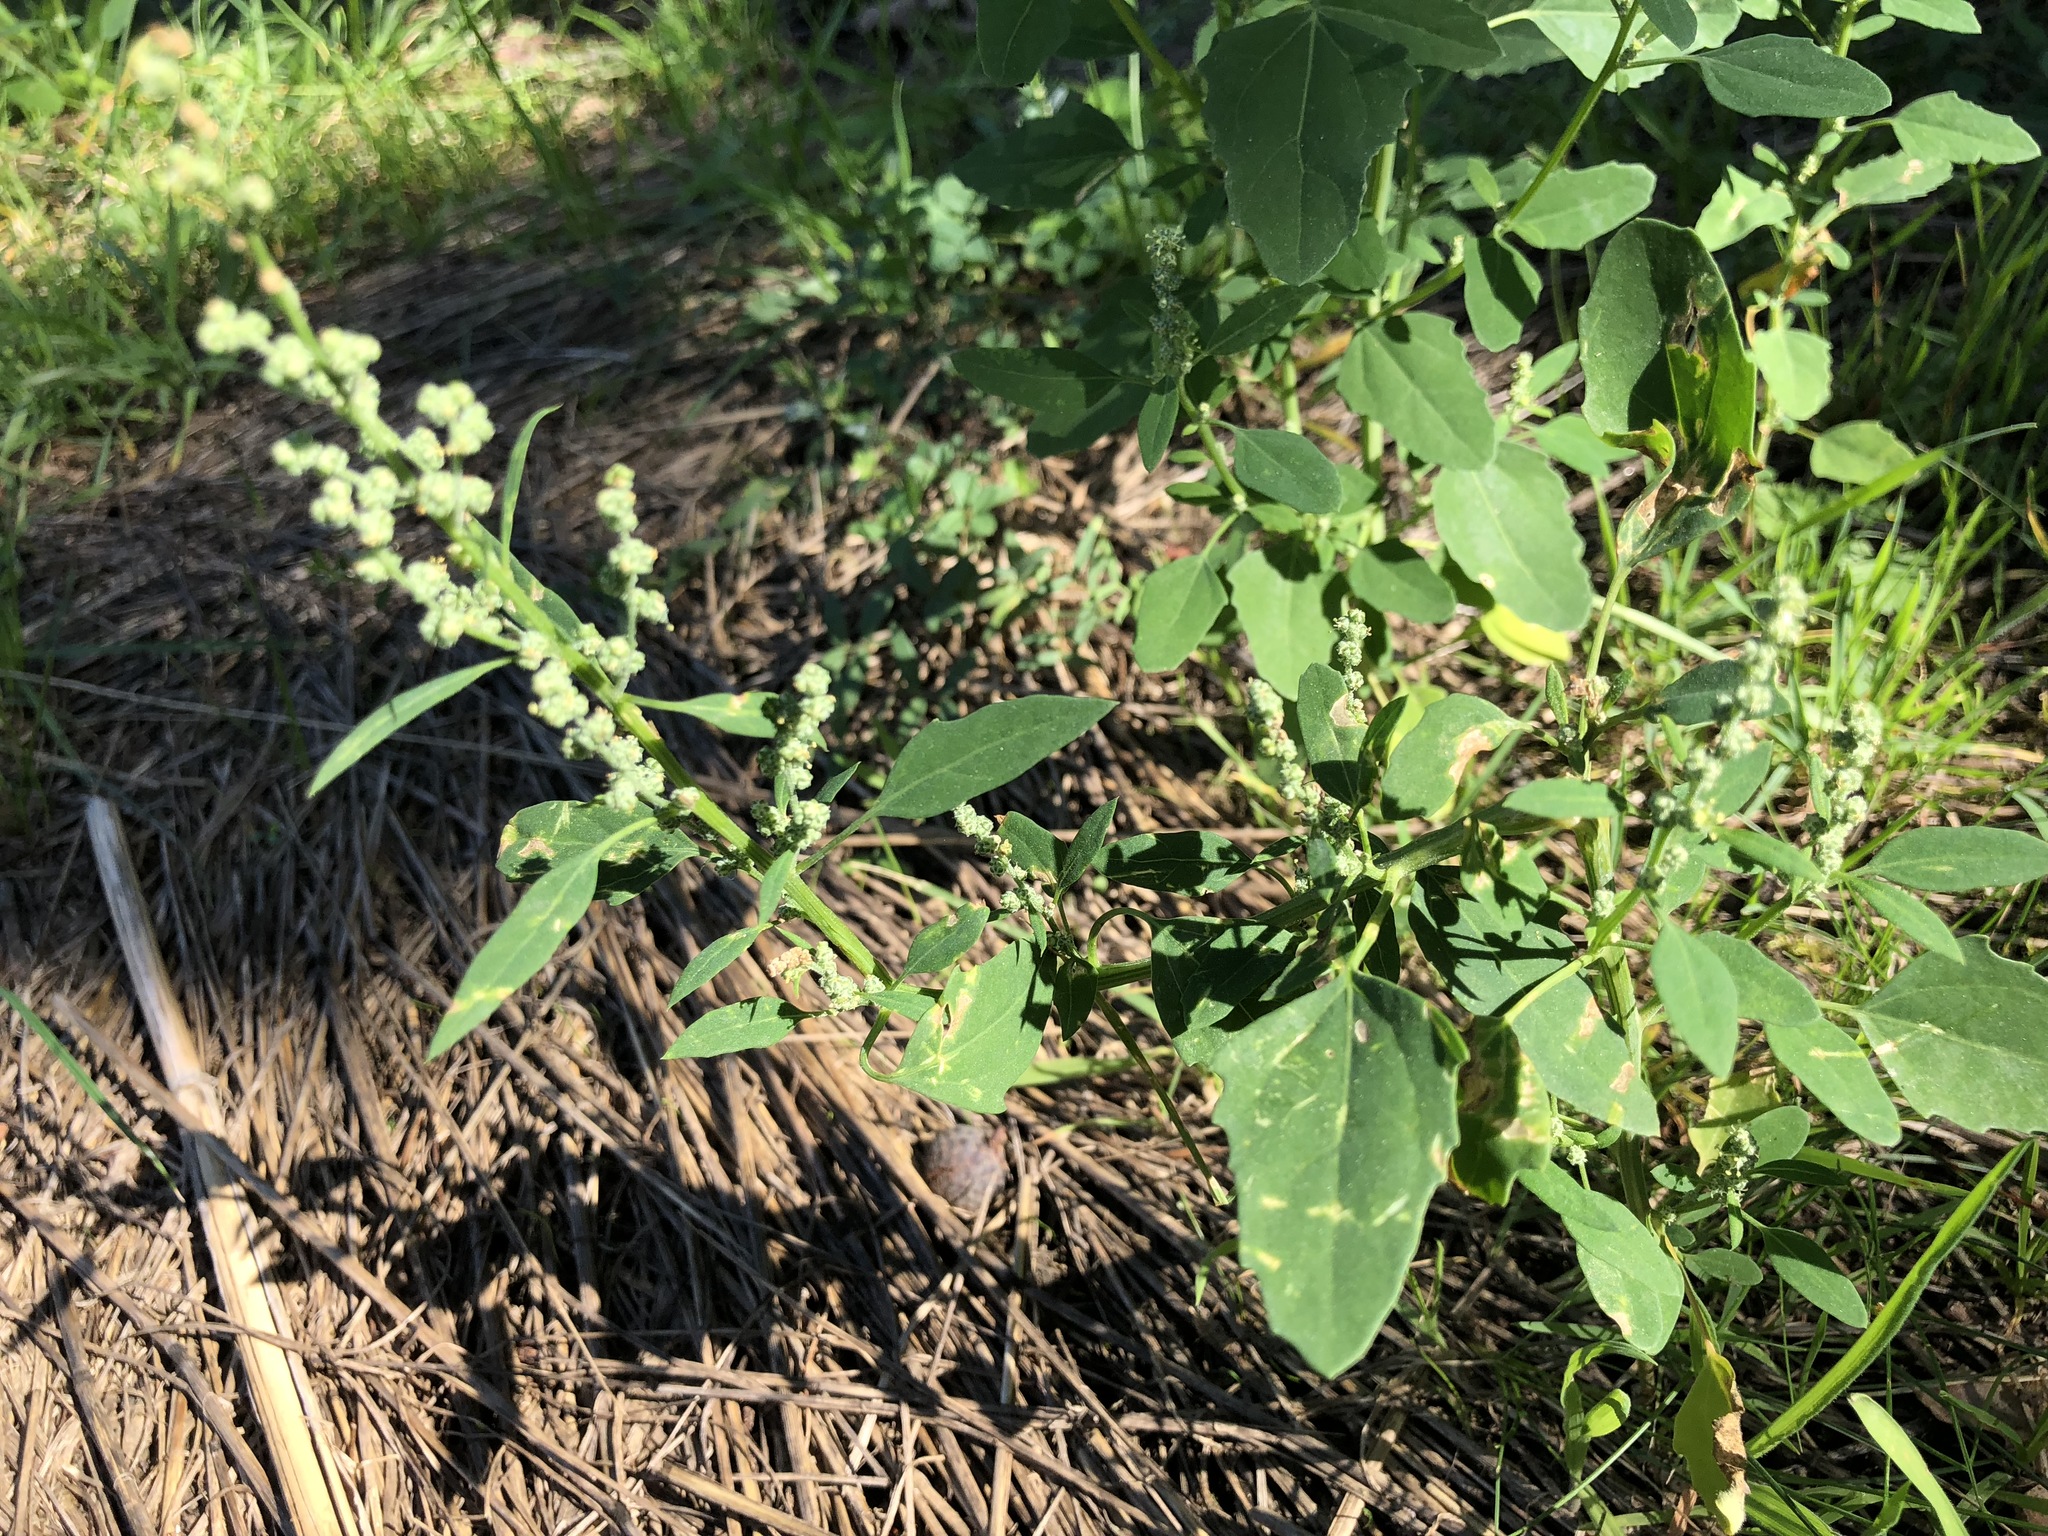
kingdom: Plantae
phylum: Tracheophyta
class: Magnoliopsida
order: Caryophyllales
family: Amaranthaceae
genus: Chenopodium
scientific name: Chenopodium album
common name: Fat-hen
